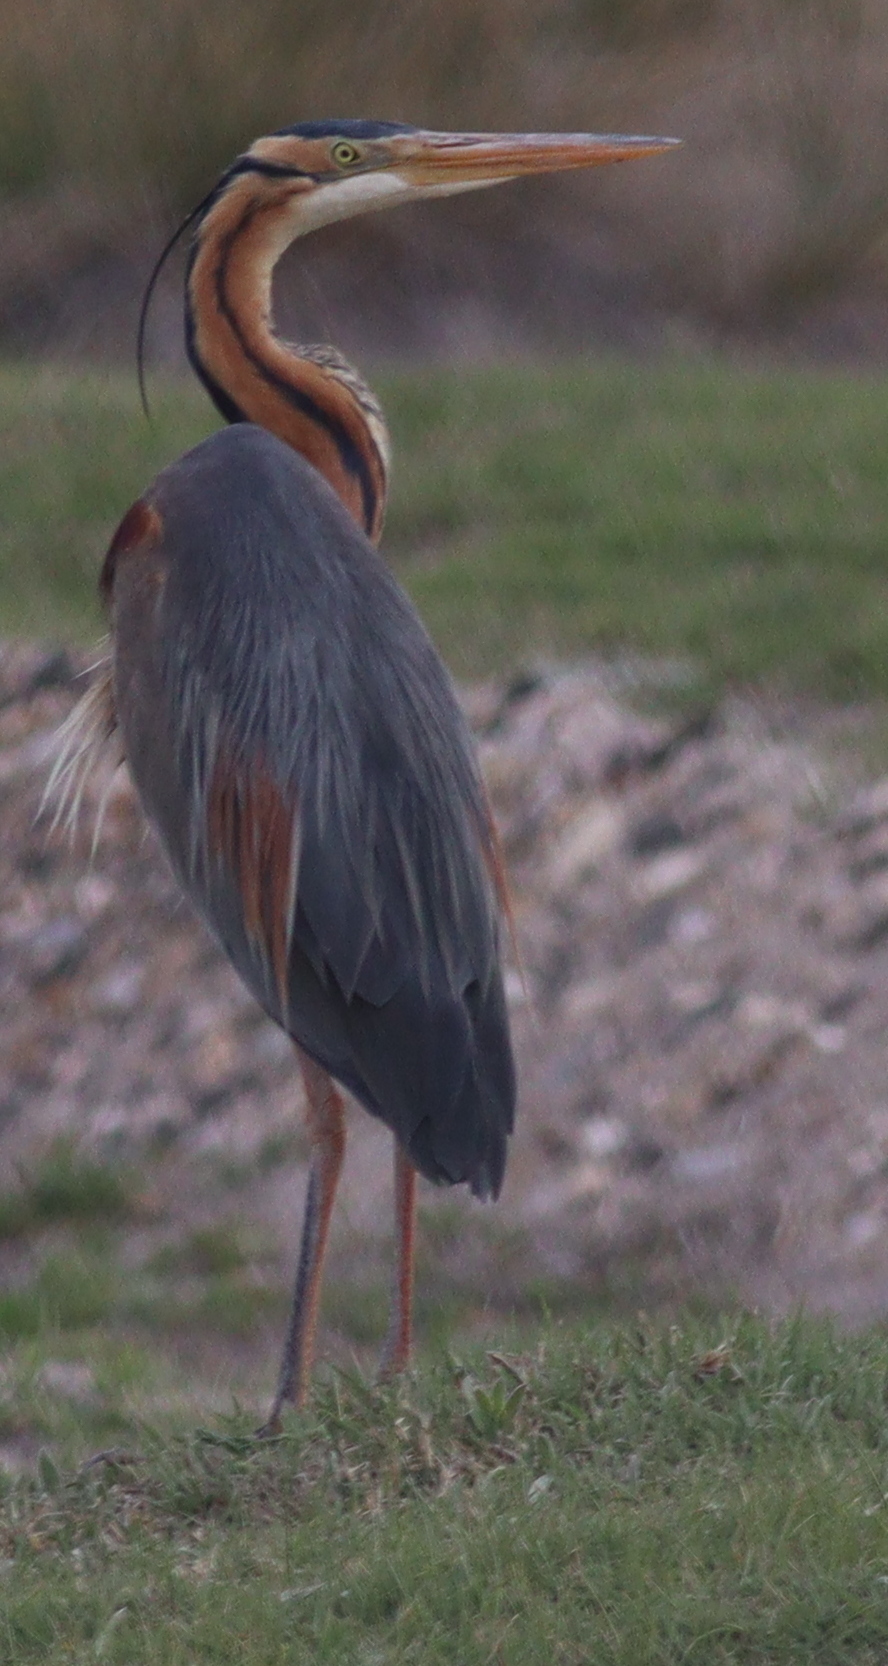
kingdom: Animalia
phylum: Chordata
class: Aves
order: Pelecaniformes
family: Ardeidae
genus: Ardea
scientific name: Ardea purpurea
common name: Purple heron
